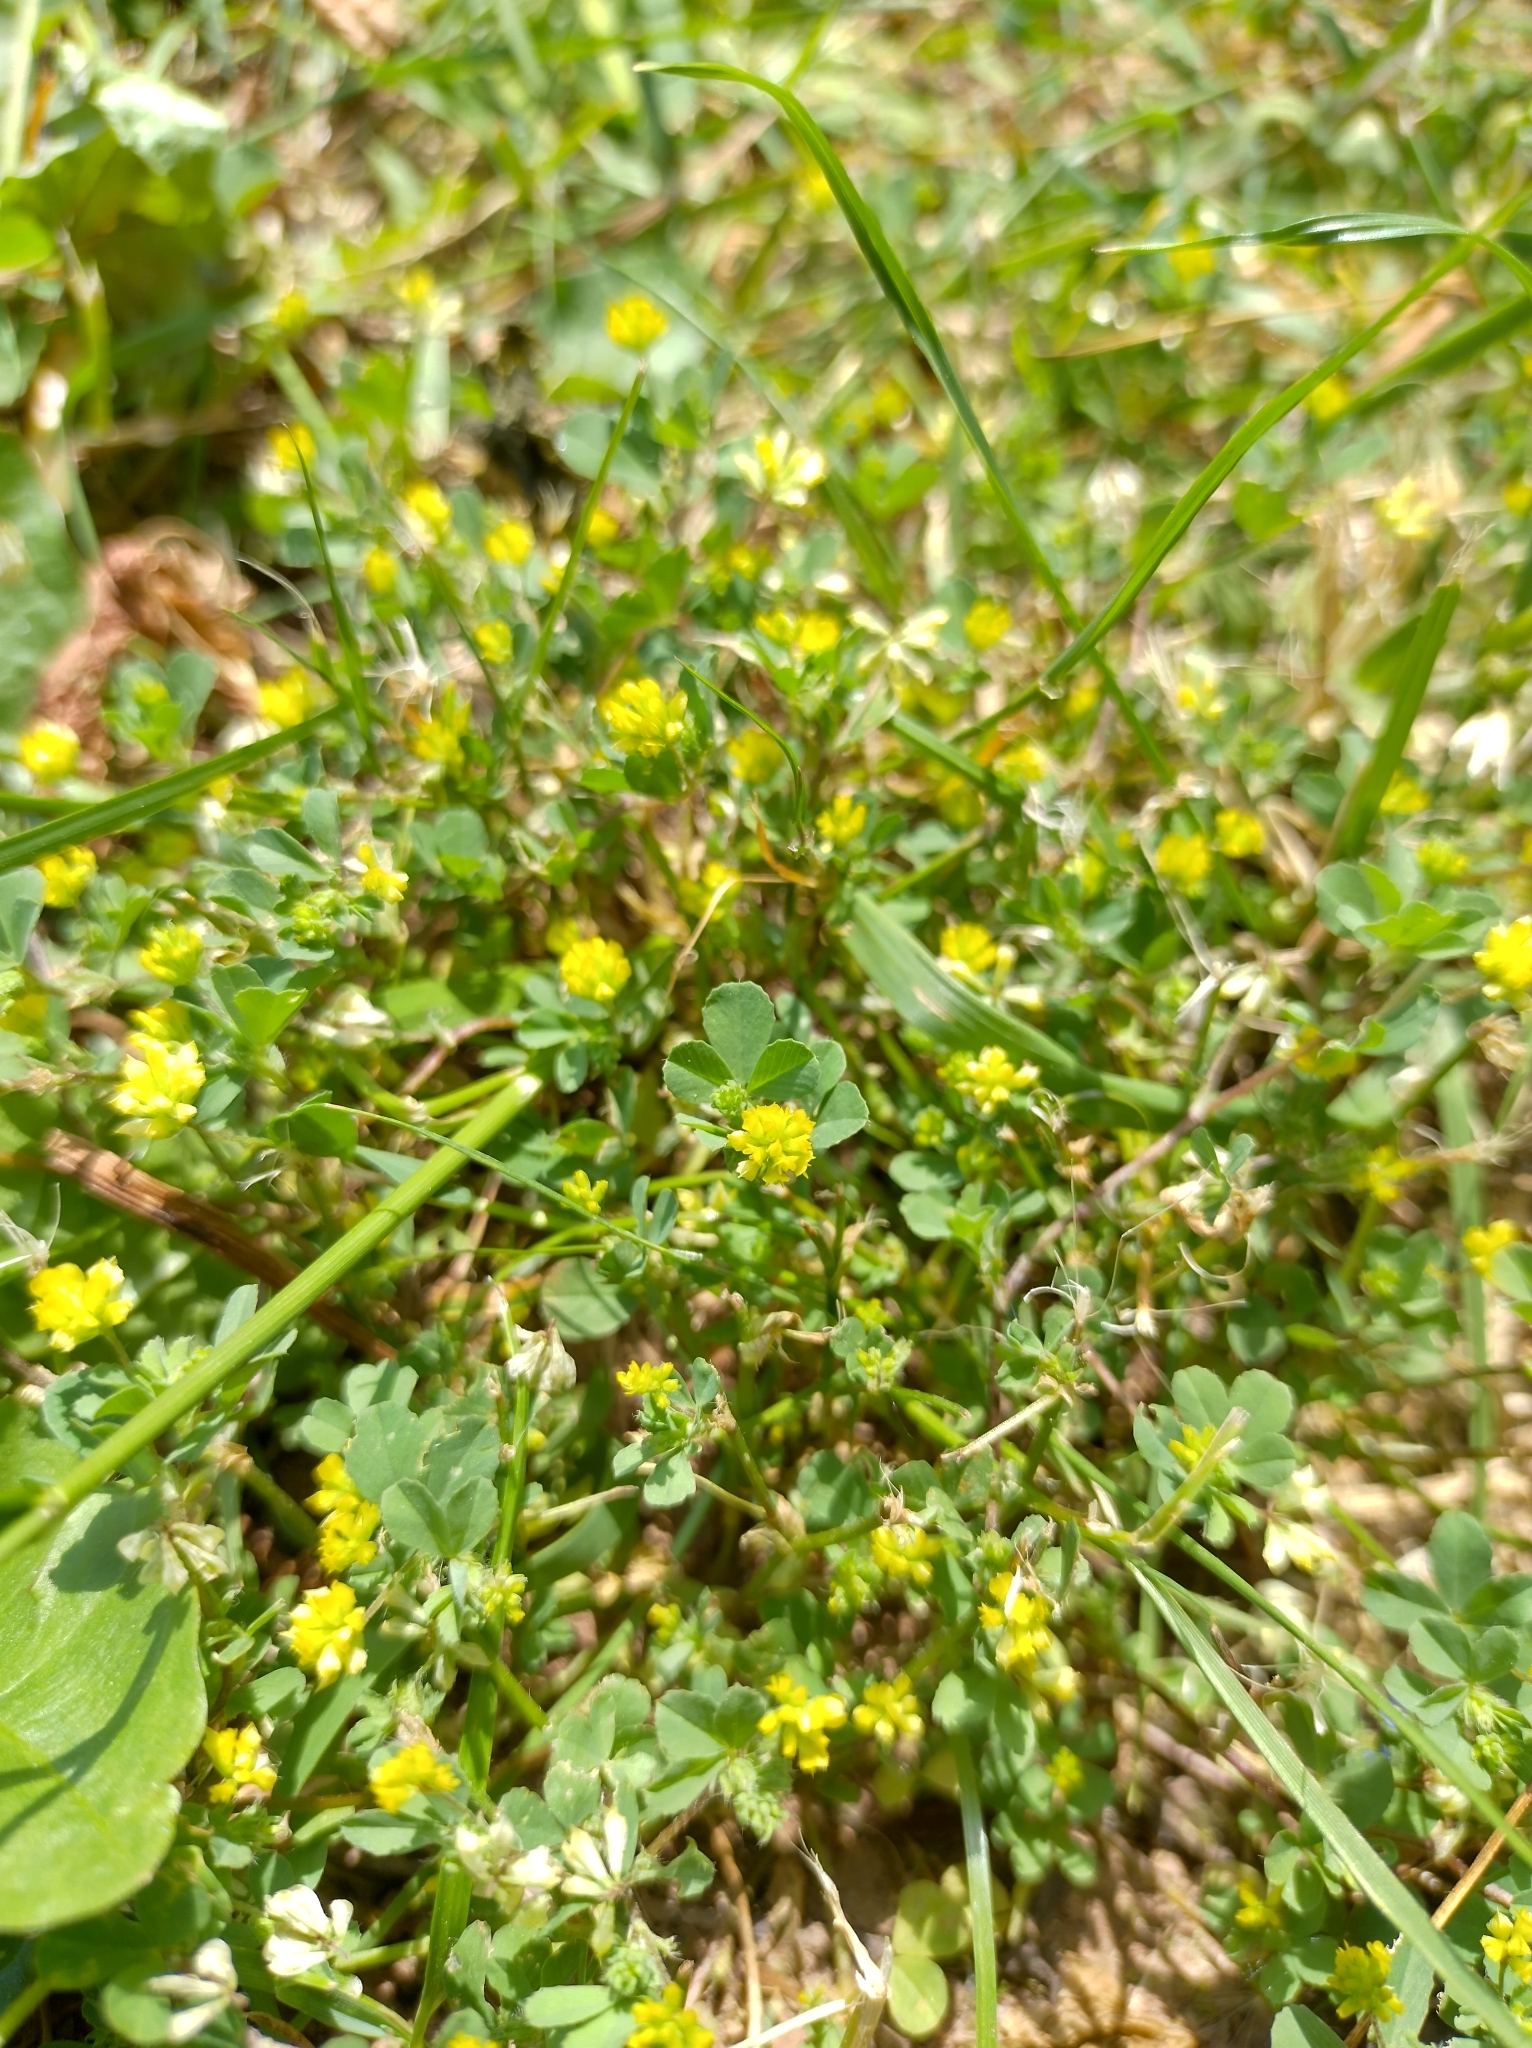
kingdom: Plantae
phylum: Tracheophyta
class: Magnoliopsida
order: Fabales
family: Fabaceae
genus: Trifolium
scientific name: Trifolium dubium
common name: Suckling clover
